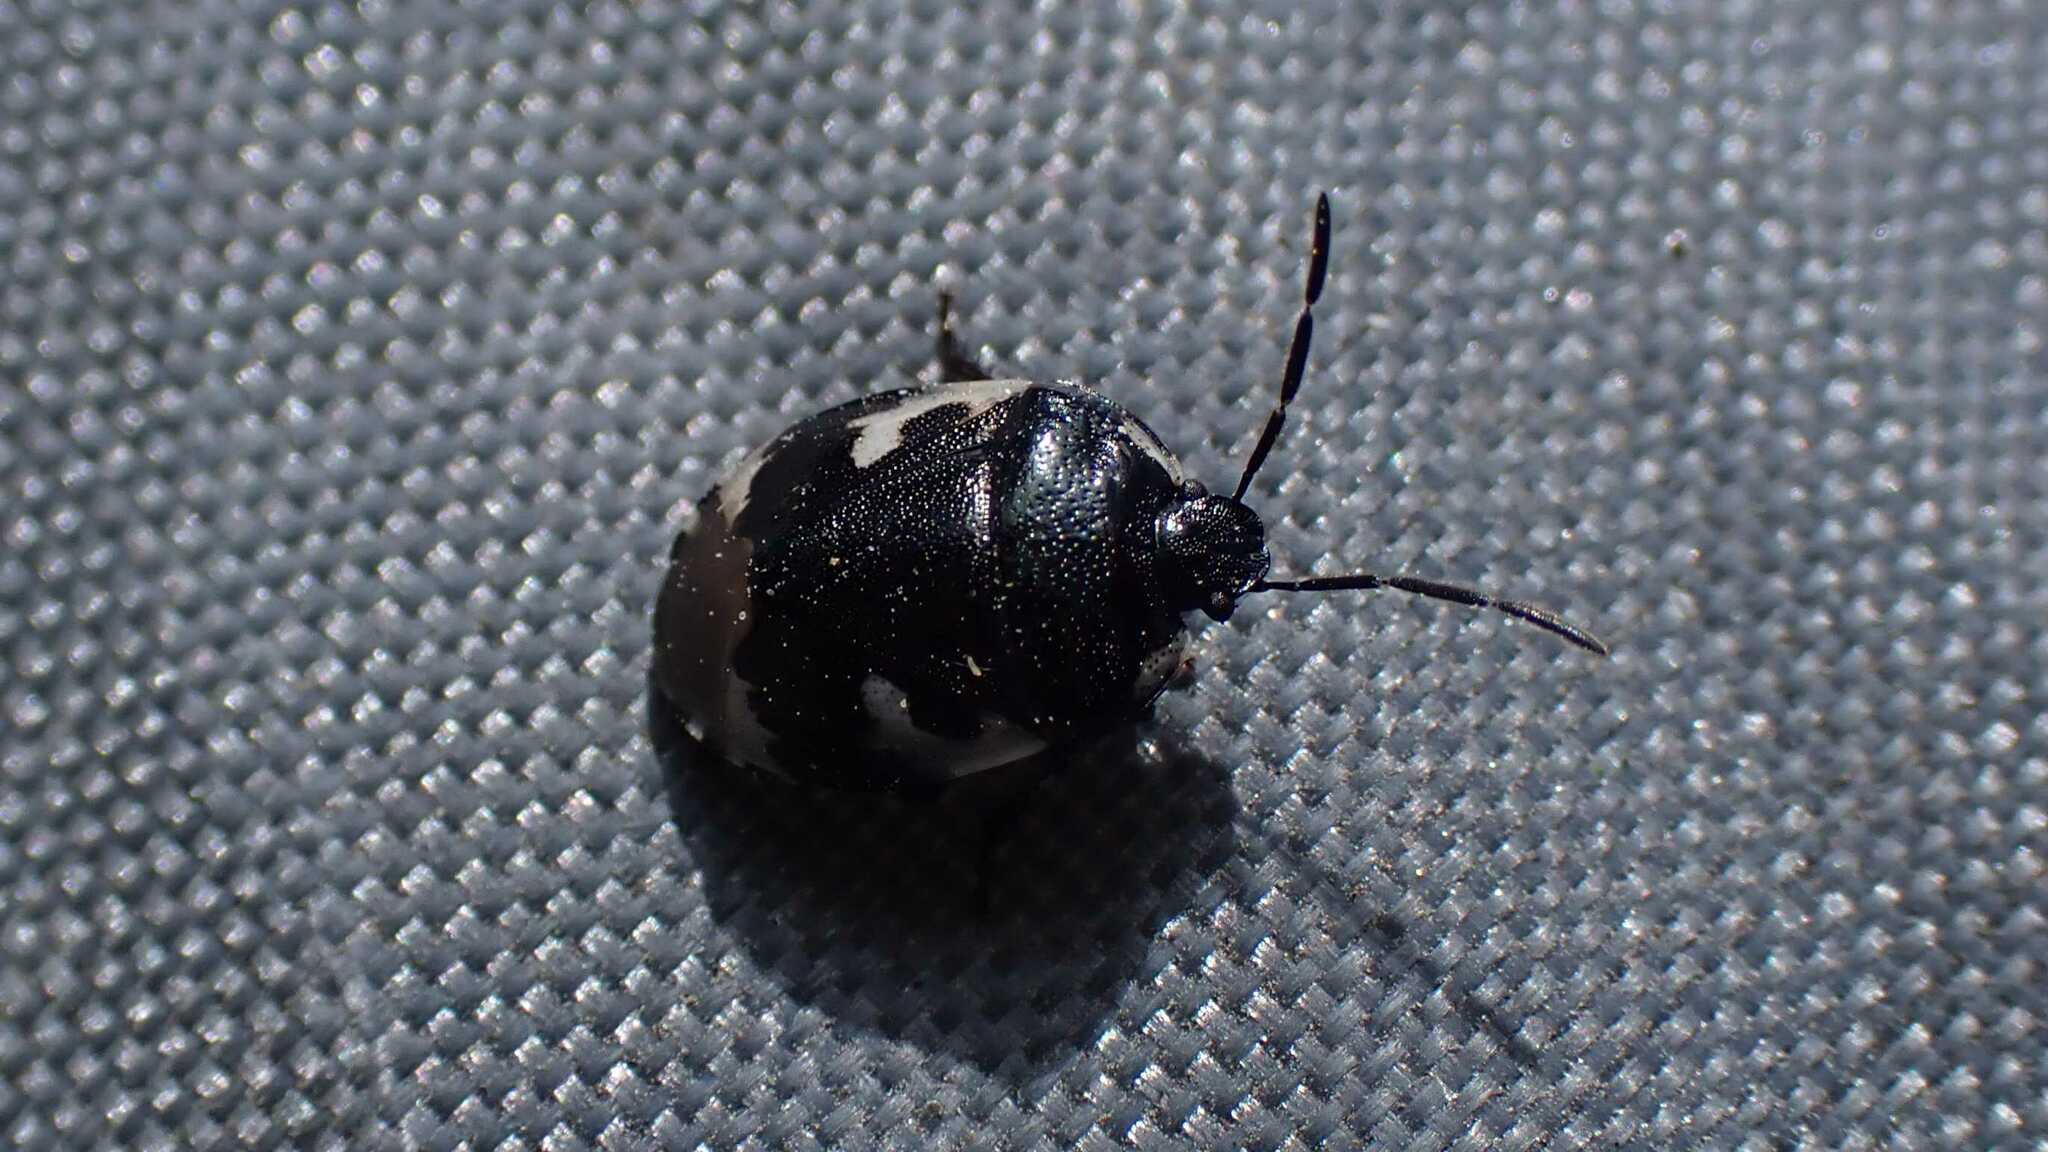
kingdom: Animalia
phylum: Arthropoda
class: Insecta
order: Hemiptera
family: Cydnidae
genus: Tritomegas
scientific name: Tritomegas bicolor
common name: Pied shieldbug
